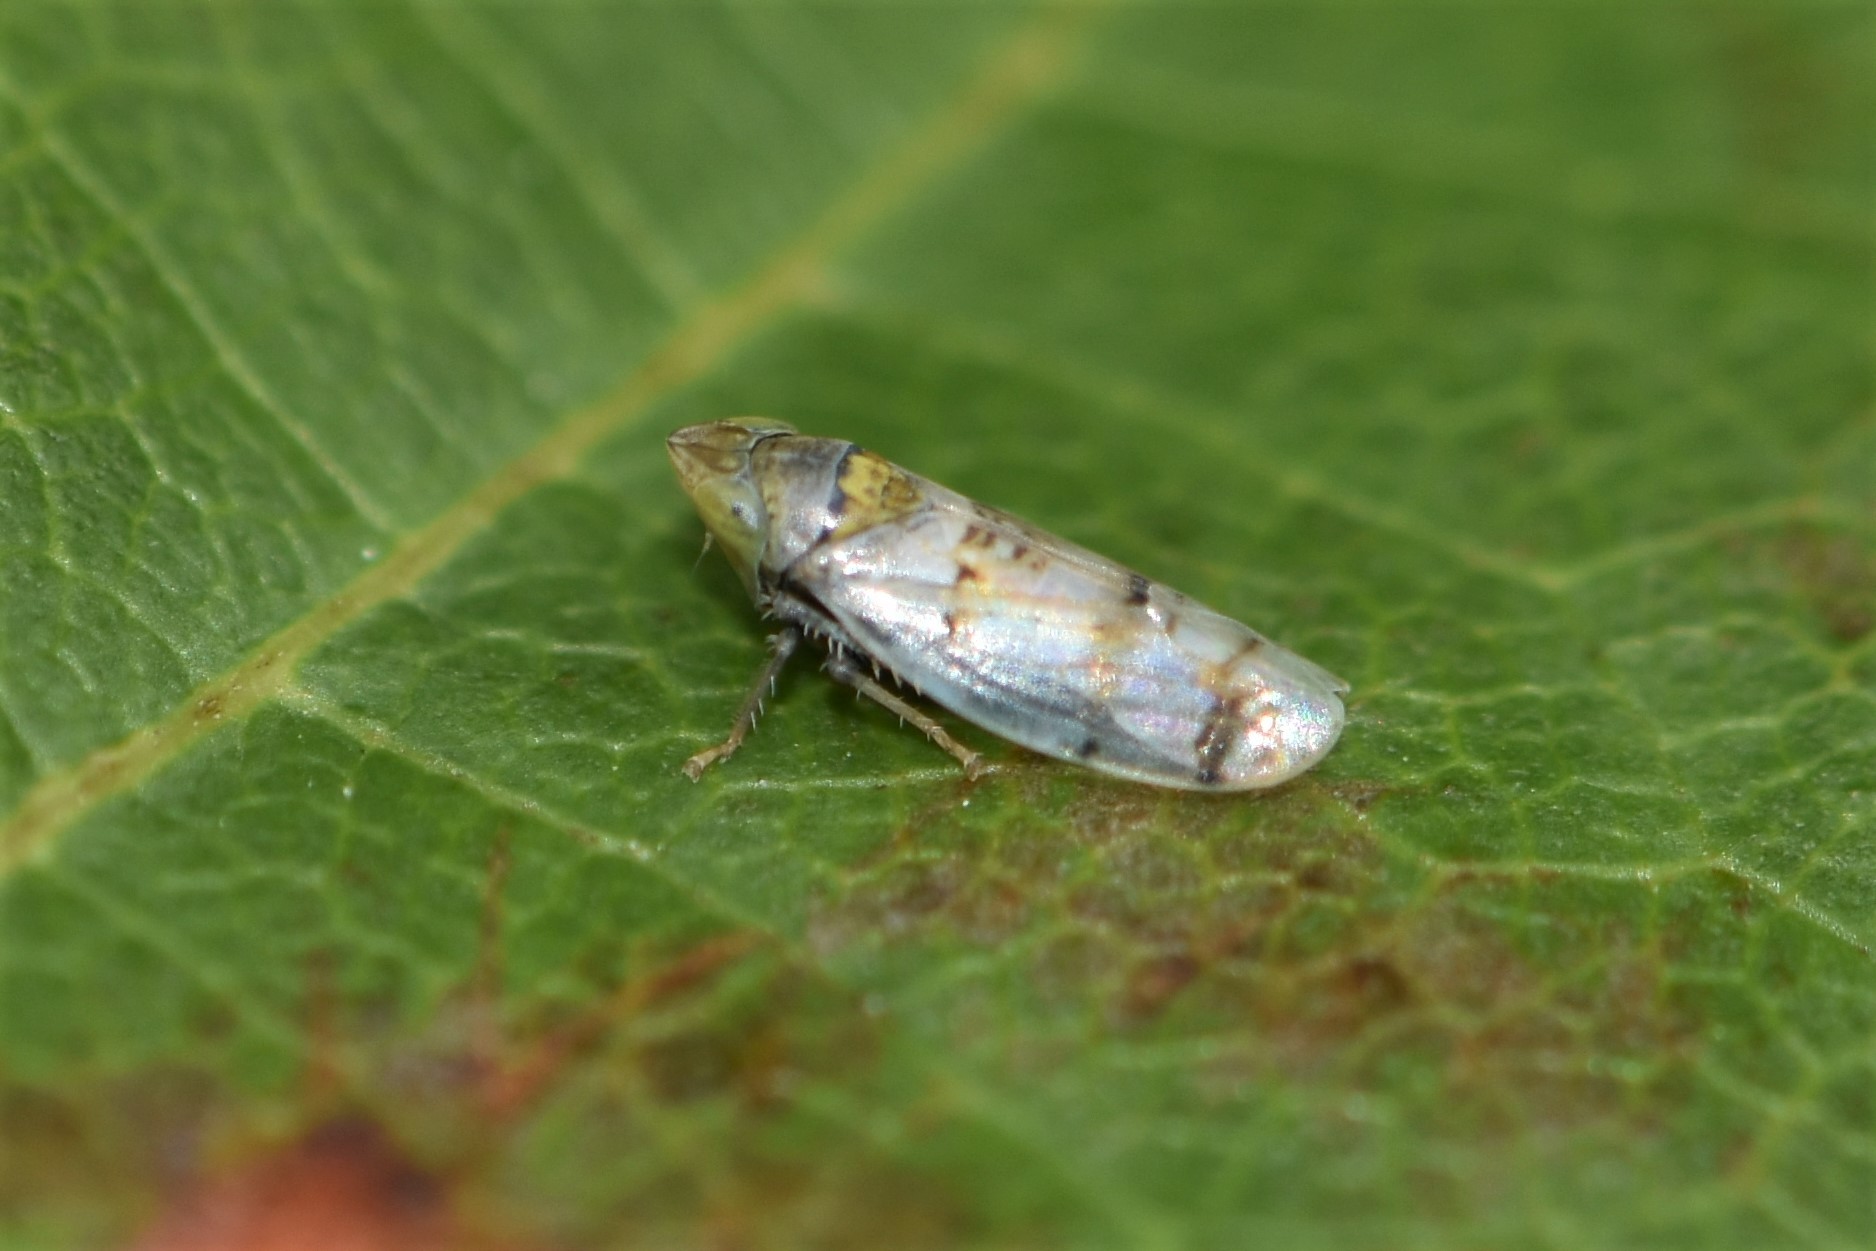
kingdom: Animalia
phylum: Arthropoda
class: Insecta
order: Hemiptera
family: Cicadellidae
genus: Japananus
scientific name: Japananus hyalinus
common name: The japanese maple leafhopper
